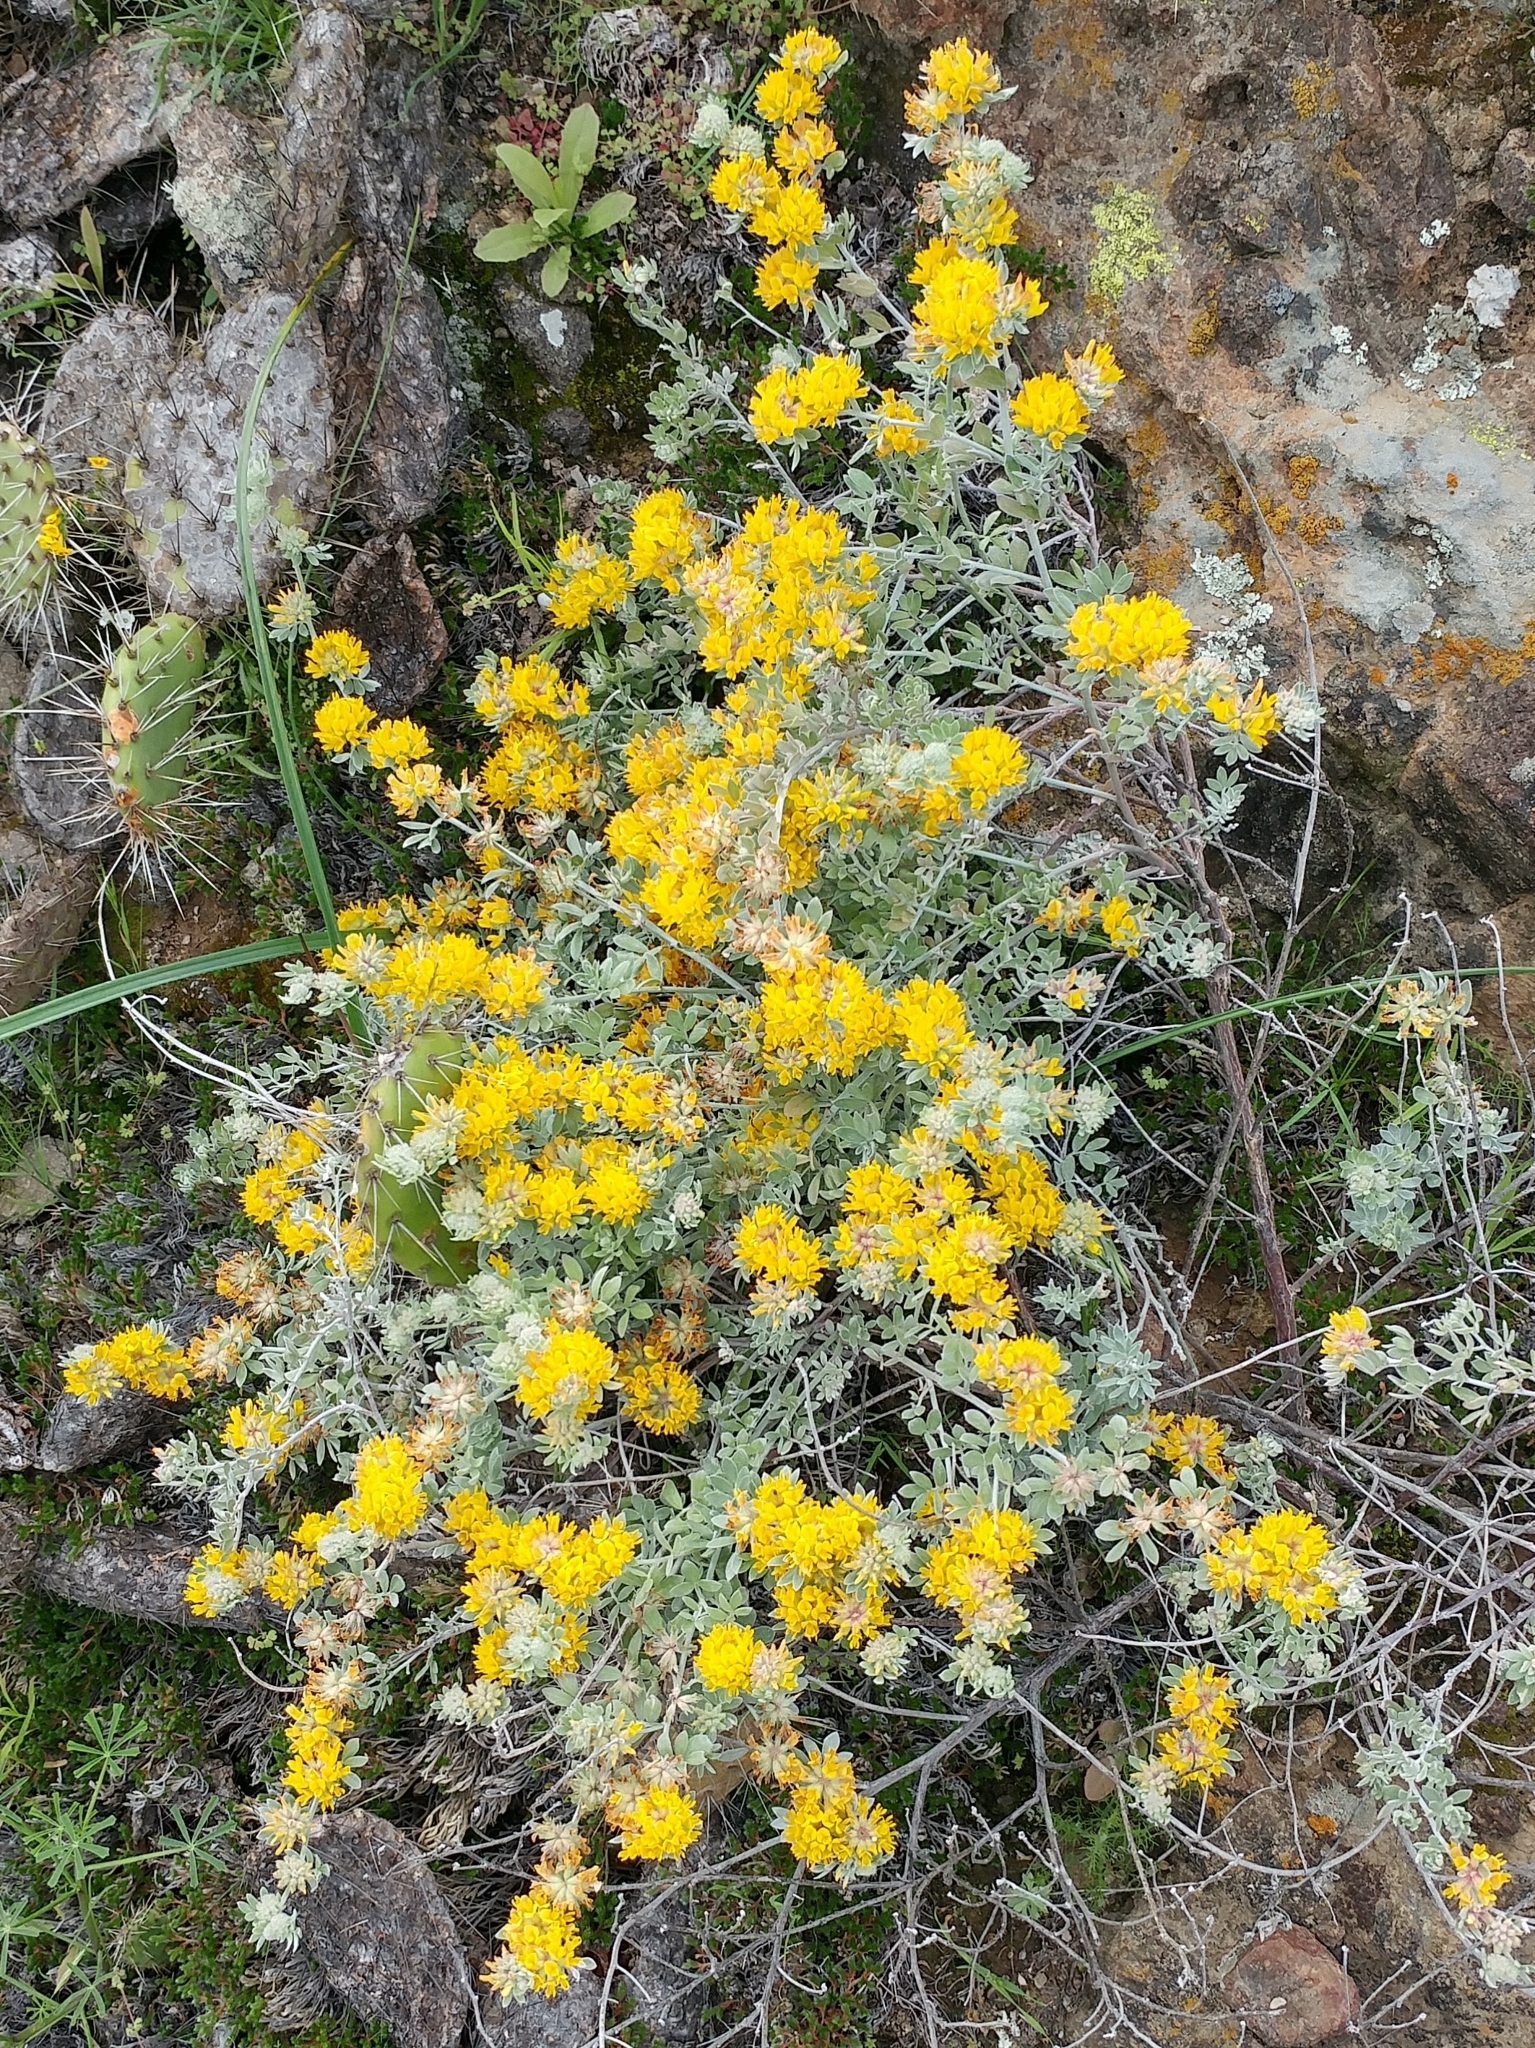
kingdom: Plantae
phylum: Tracheophyta
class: Magnoliopsida
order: Fabales
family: Fabaceae
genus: Acmispon
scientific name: Acmispon argophyllus
